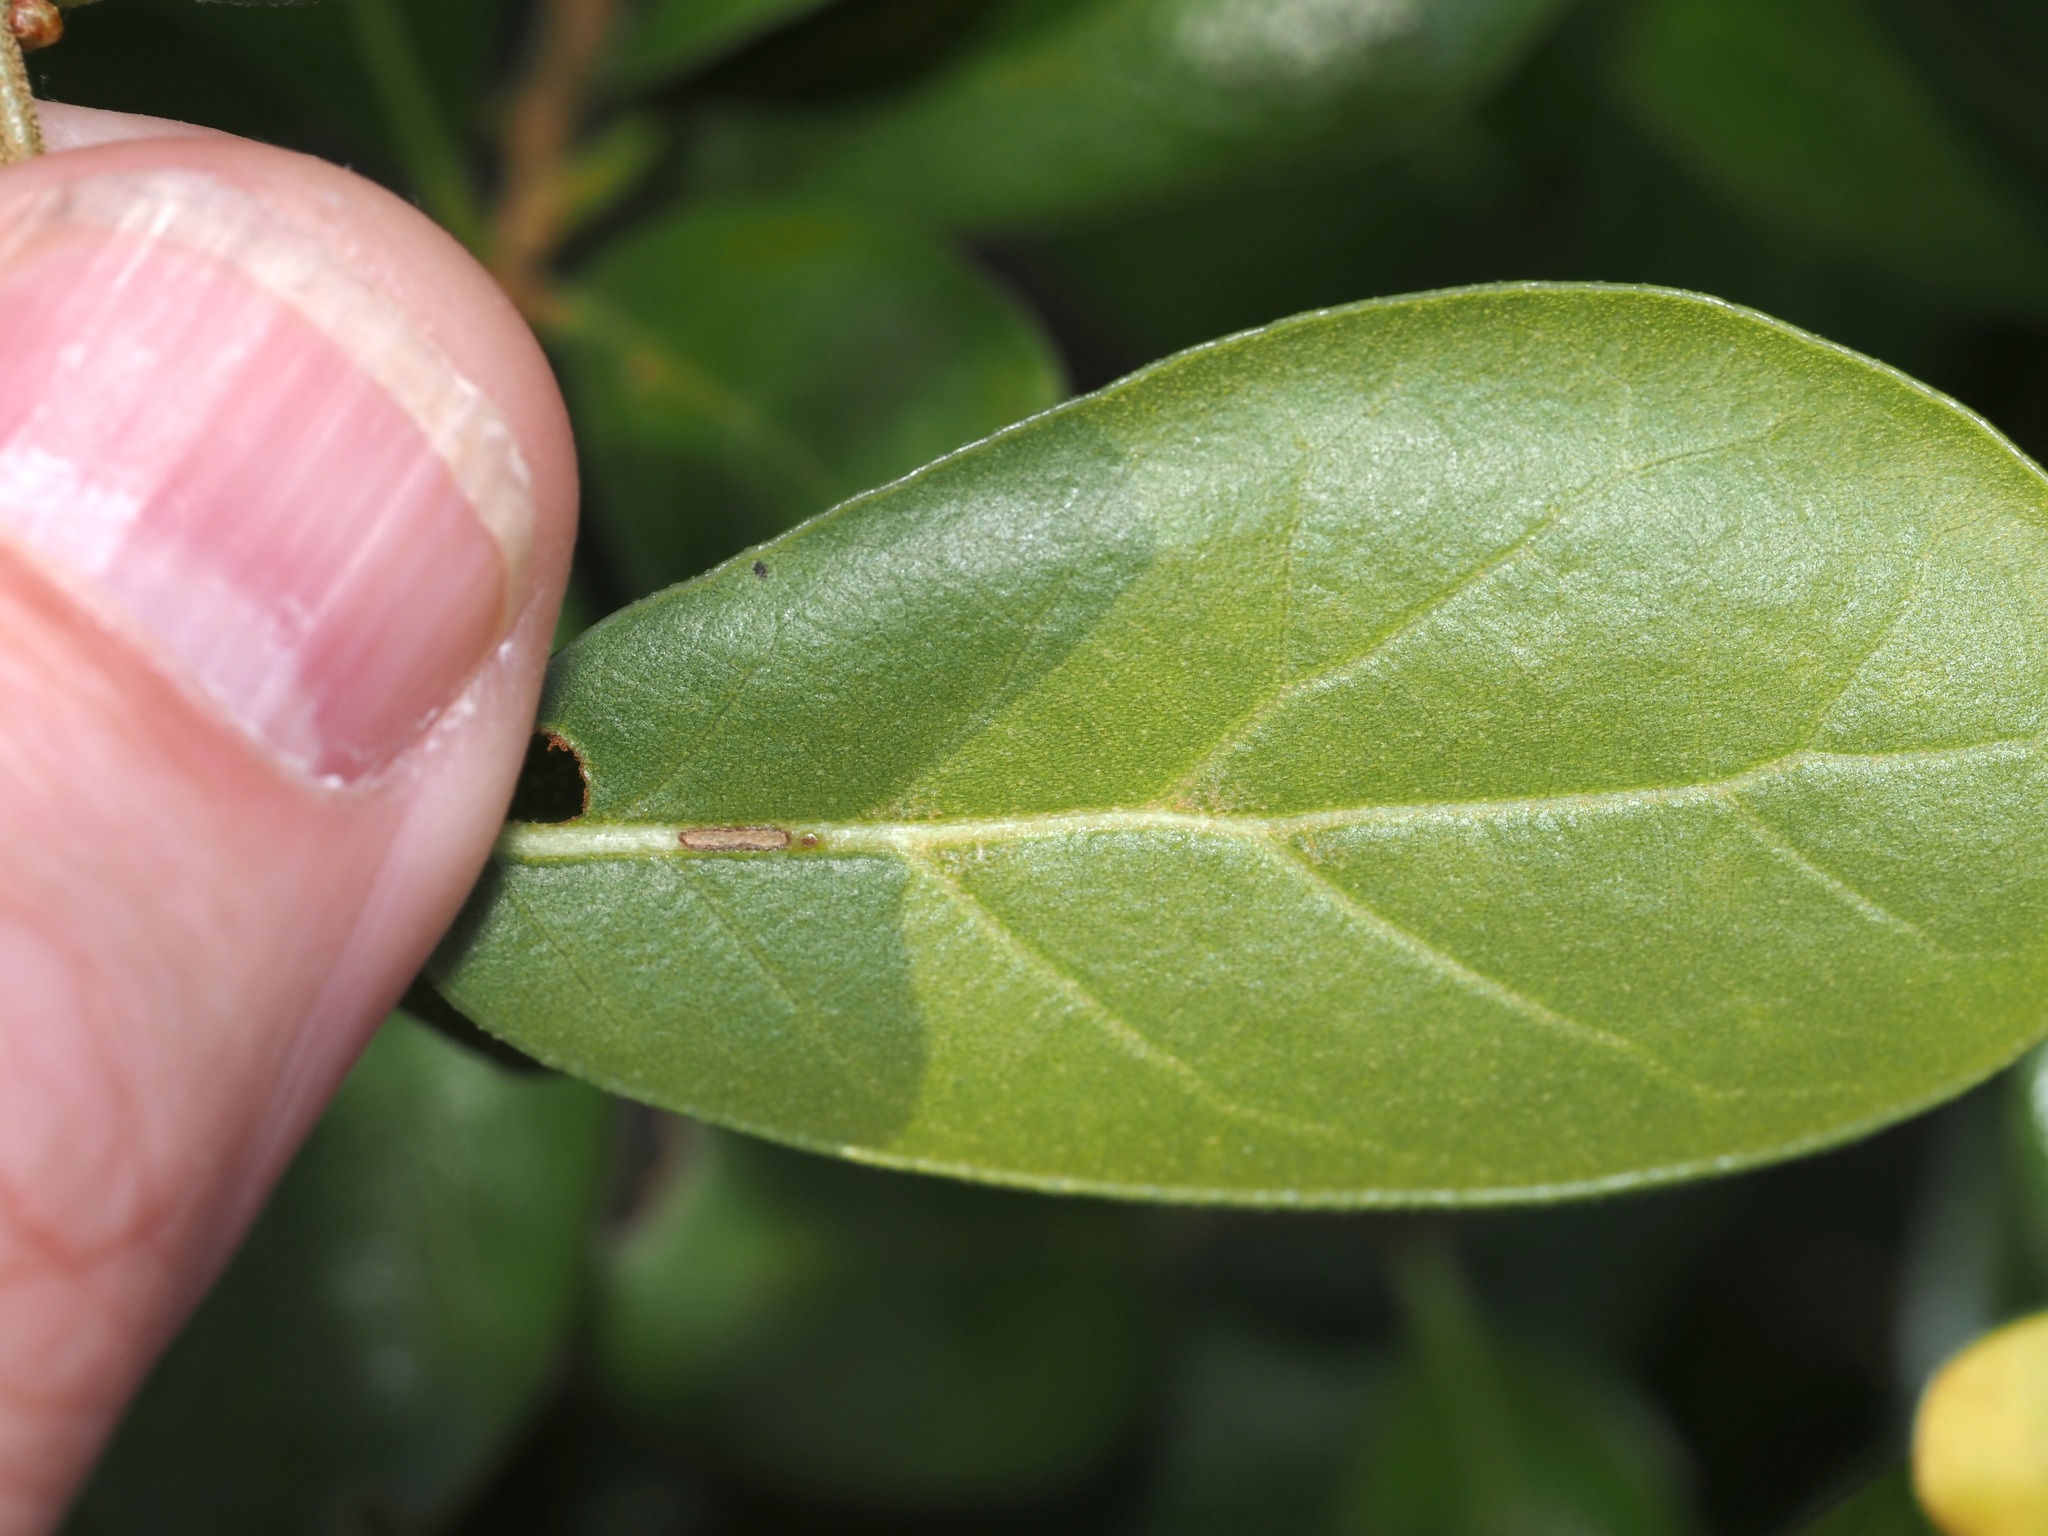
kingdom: Plantae
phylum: Tracheophyta
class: Magnoliopsida
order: Fagales
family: Fagaceae
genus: Quercus
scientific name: Quercus myrtifolia
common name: Myrtle oak
